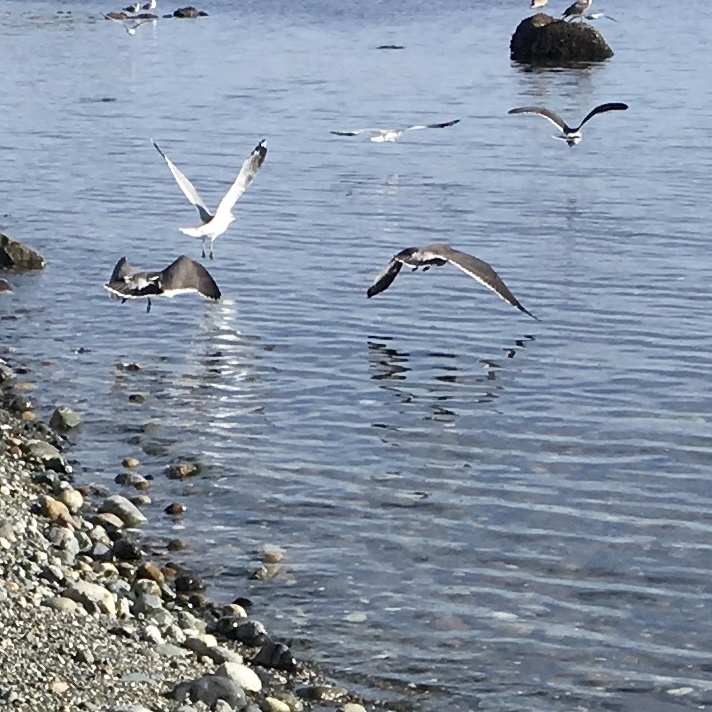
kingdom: Animalia
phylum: Chordata
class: Aves
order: Charadriiformes
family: Laridae
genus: Larus
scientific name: Larus heermanni
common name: Heermann's gull
